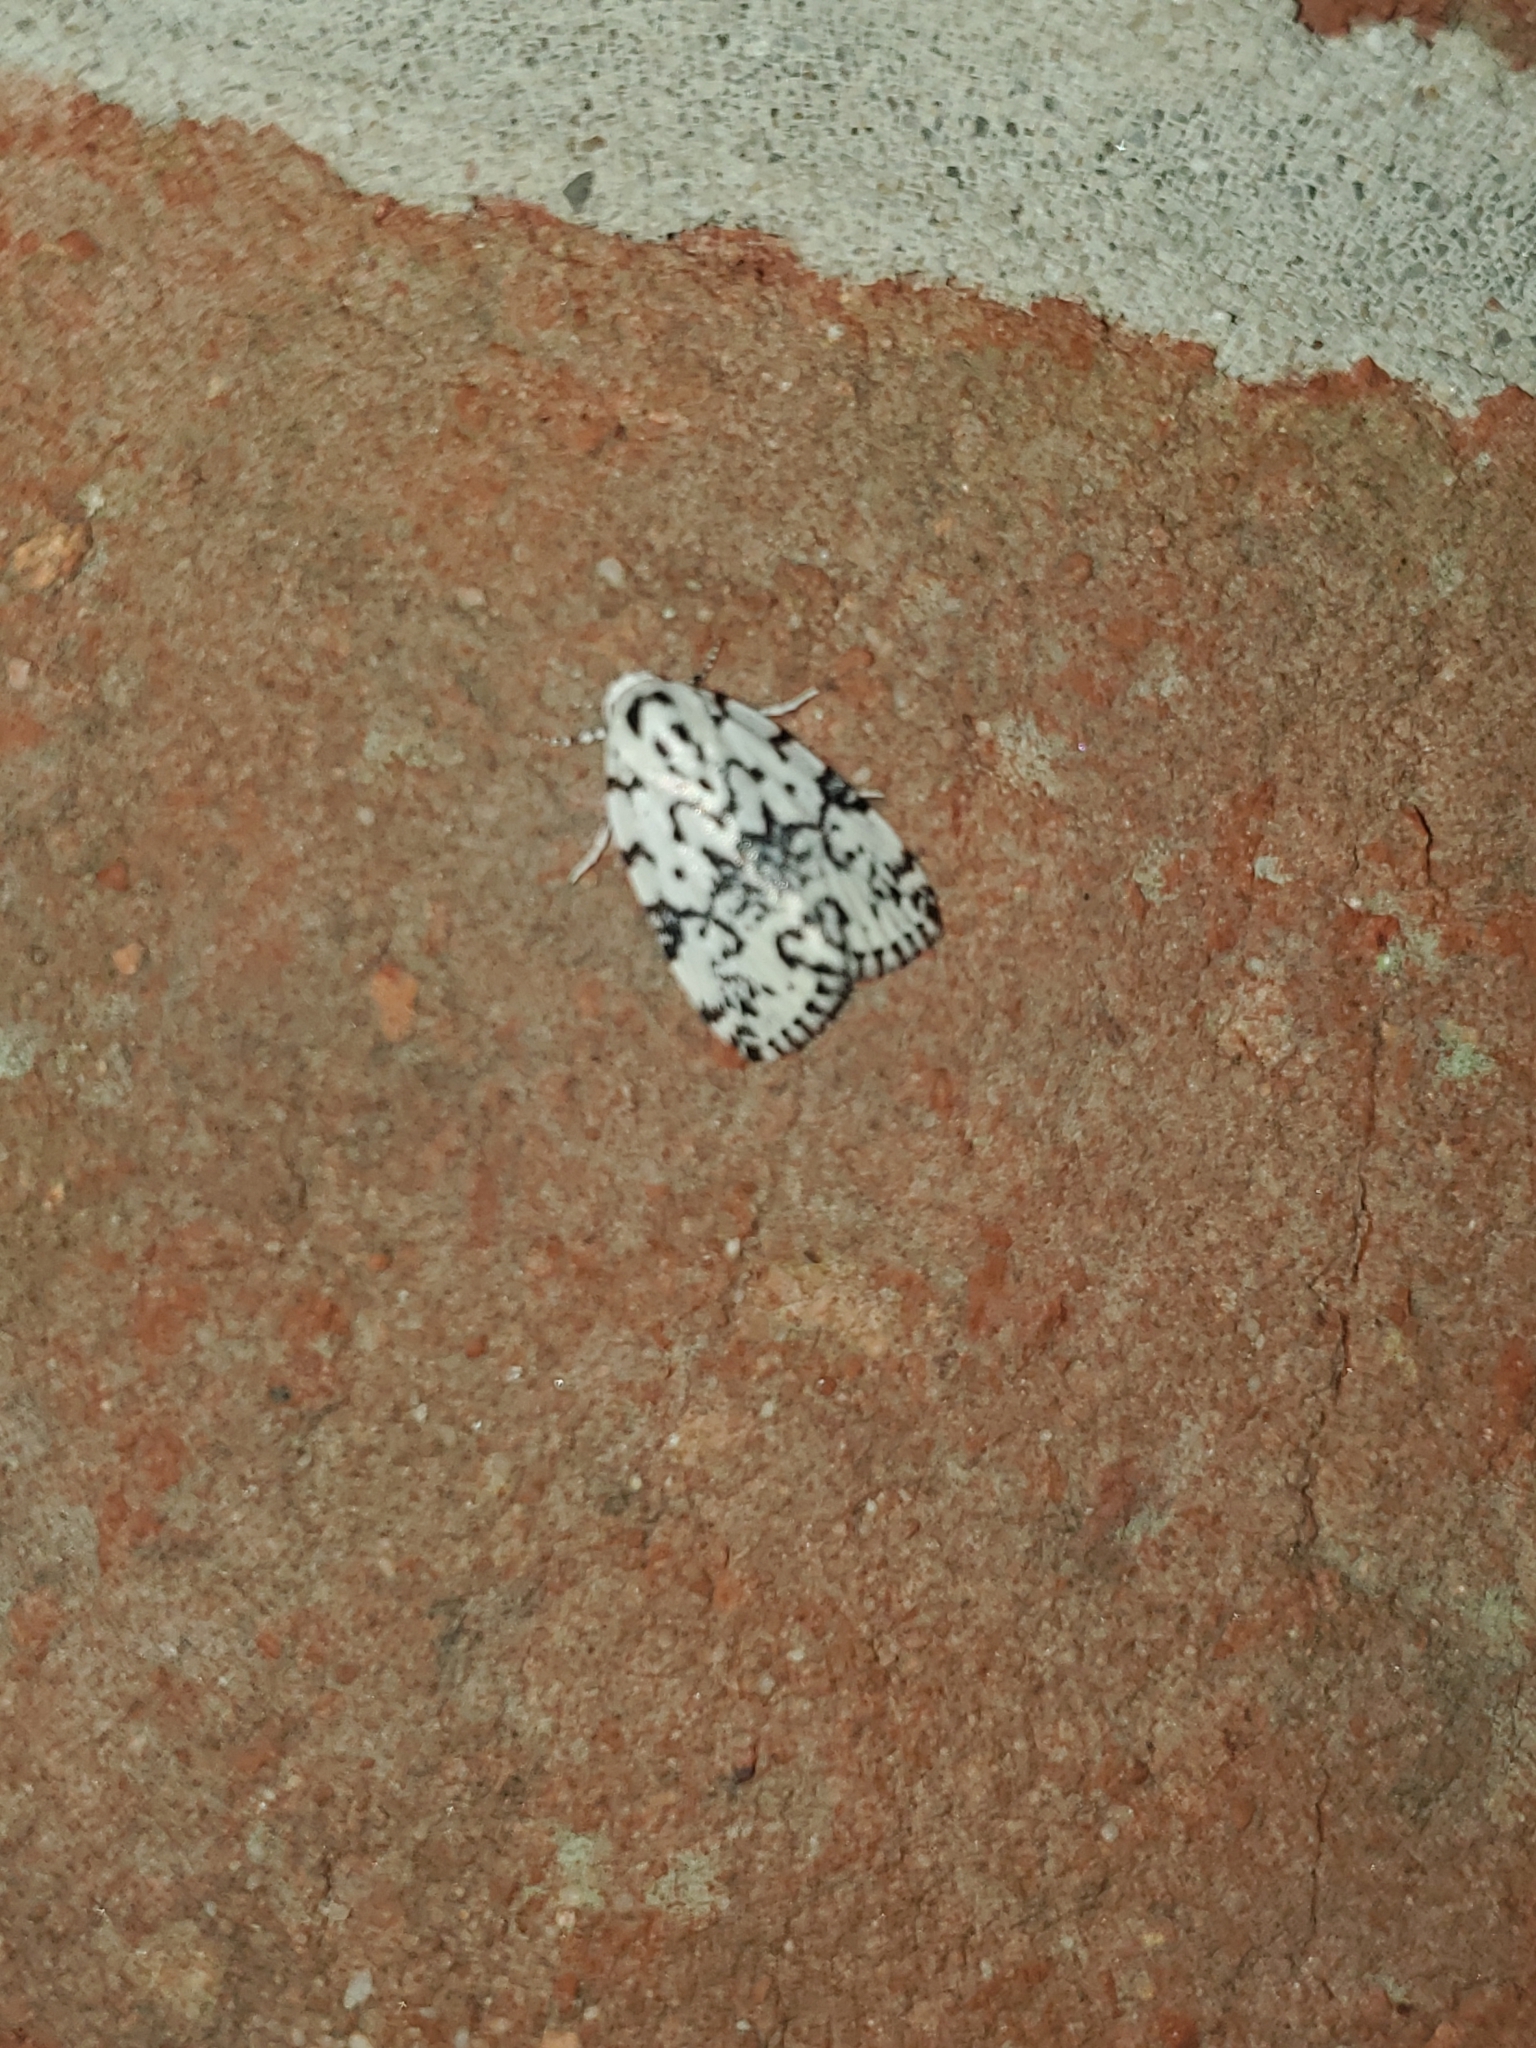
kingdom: Animalia
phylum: Arthropoda
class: Insecta
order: Lepidoptera
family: Noctuidae
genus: Polygrammate
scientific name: Polygrammate hebraeicum
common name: Hebrew moth
